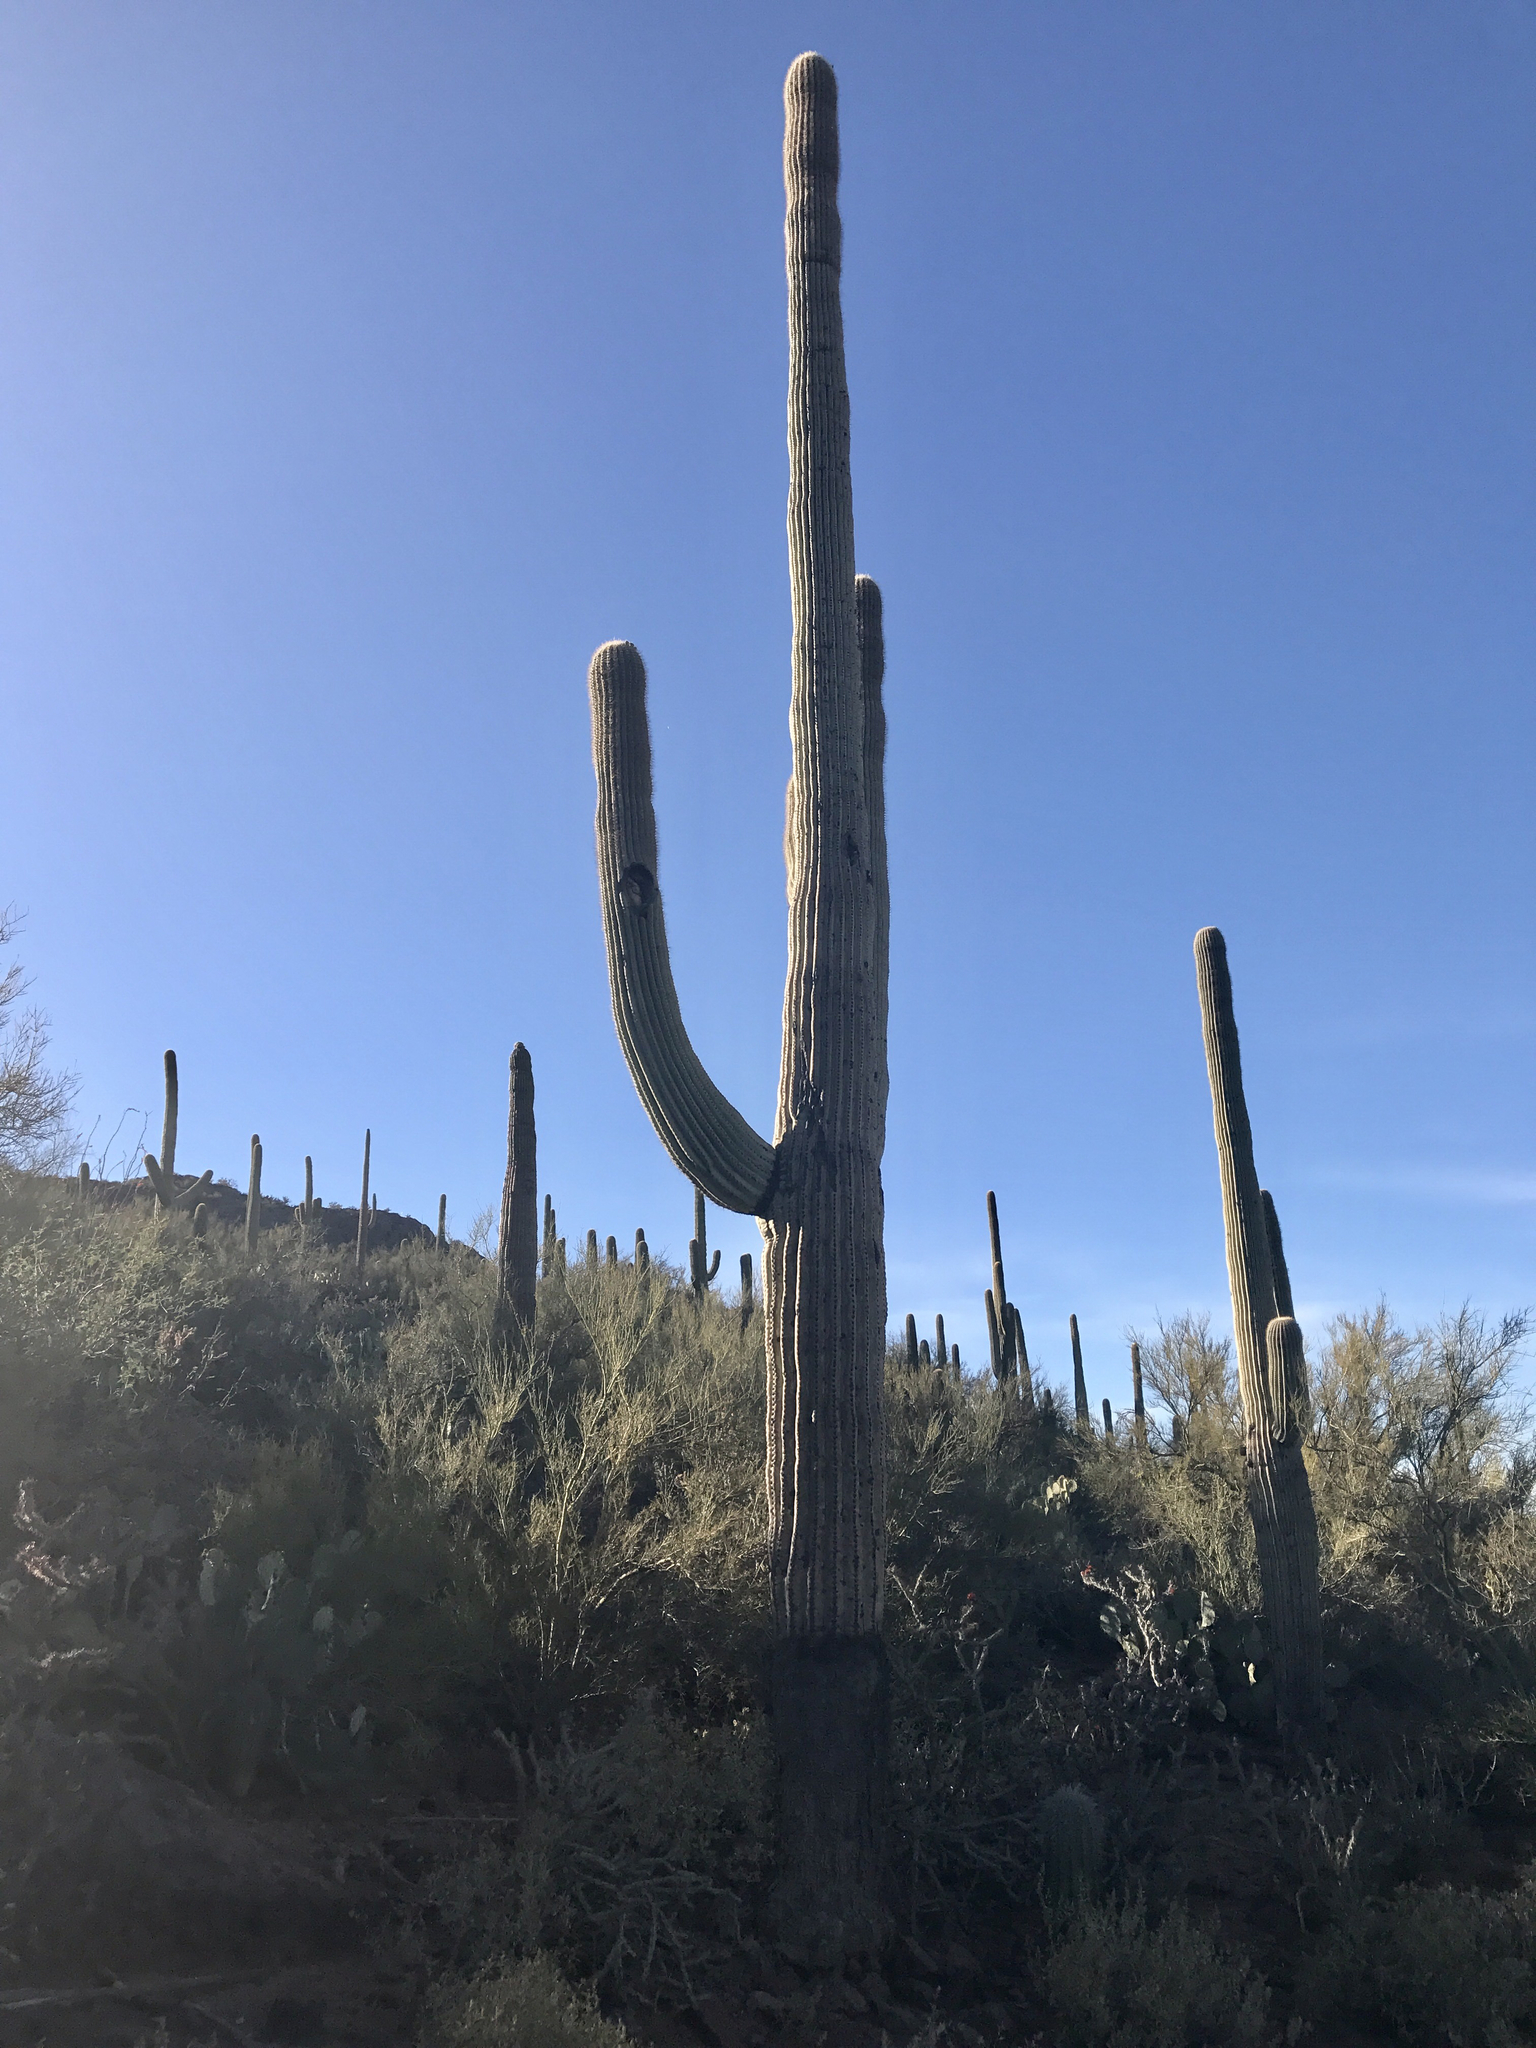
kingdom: Plantae
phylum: Tracheophyta
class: Magnoliopsida
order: Caryophyllales
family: Cactaceae
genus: Carnegiea
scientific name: Carnegiea gigantea
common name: Saguaro
